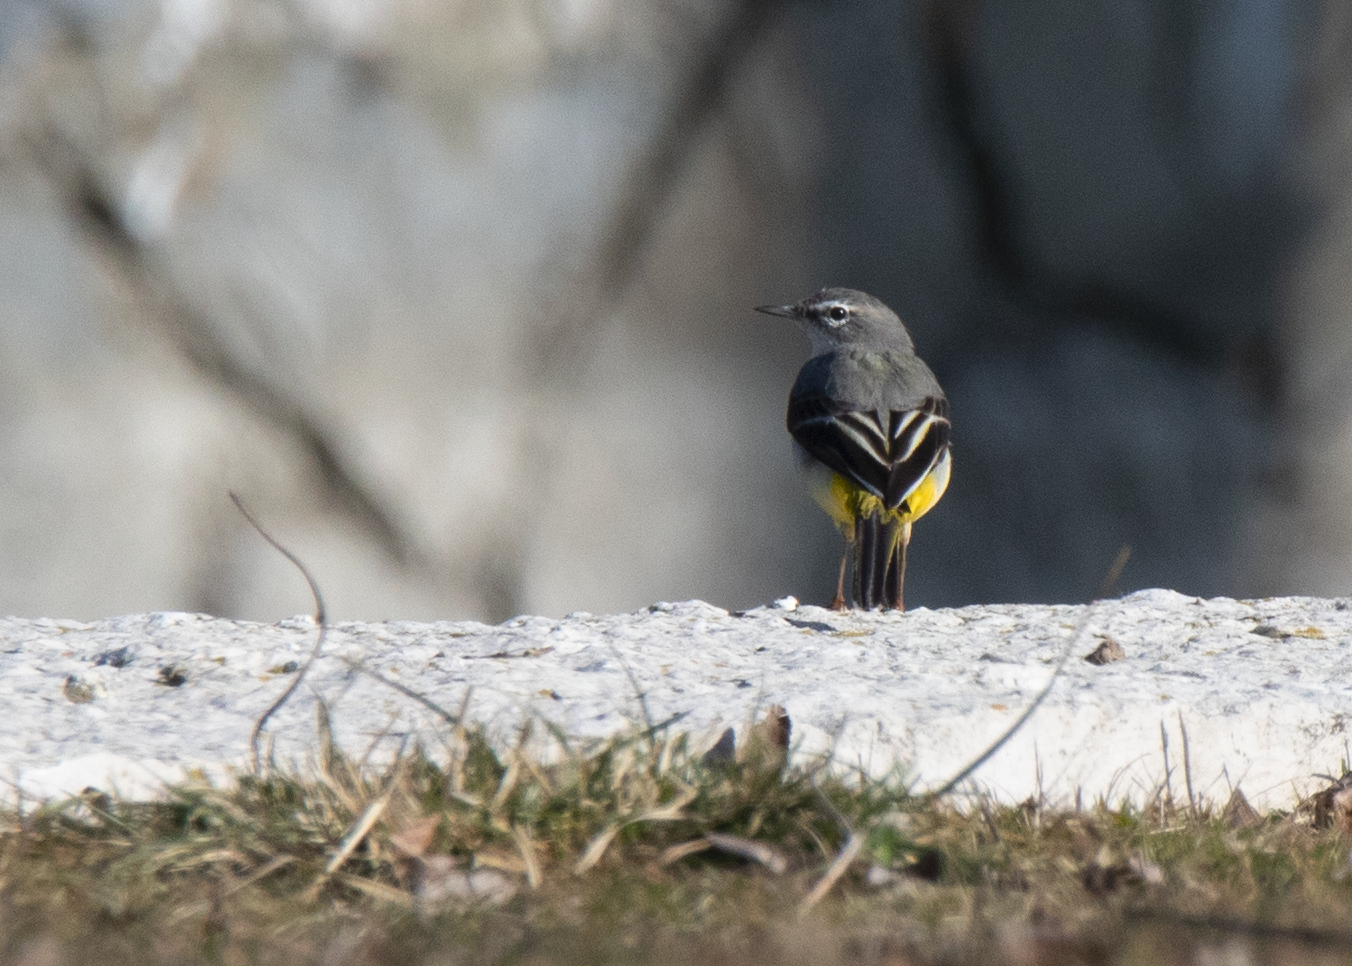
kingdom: Animalia
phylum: Chordata
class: Aves
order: Passeriformes
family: Motacillidae
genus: Motacilla
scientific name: Motacilla cinerea
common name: Grey wagtail
